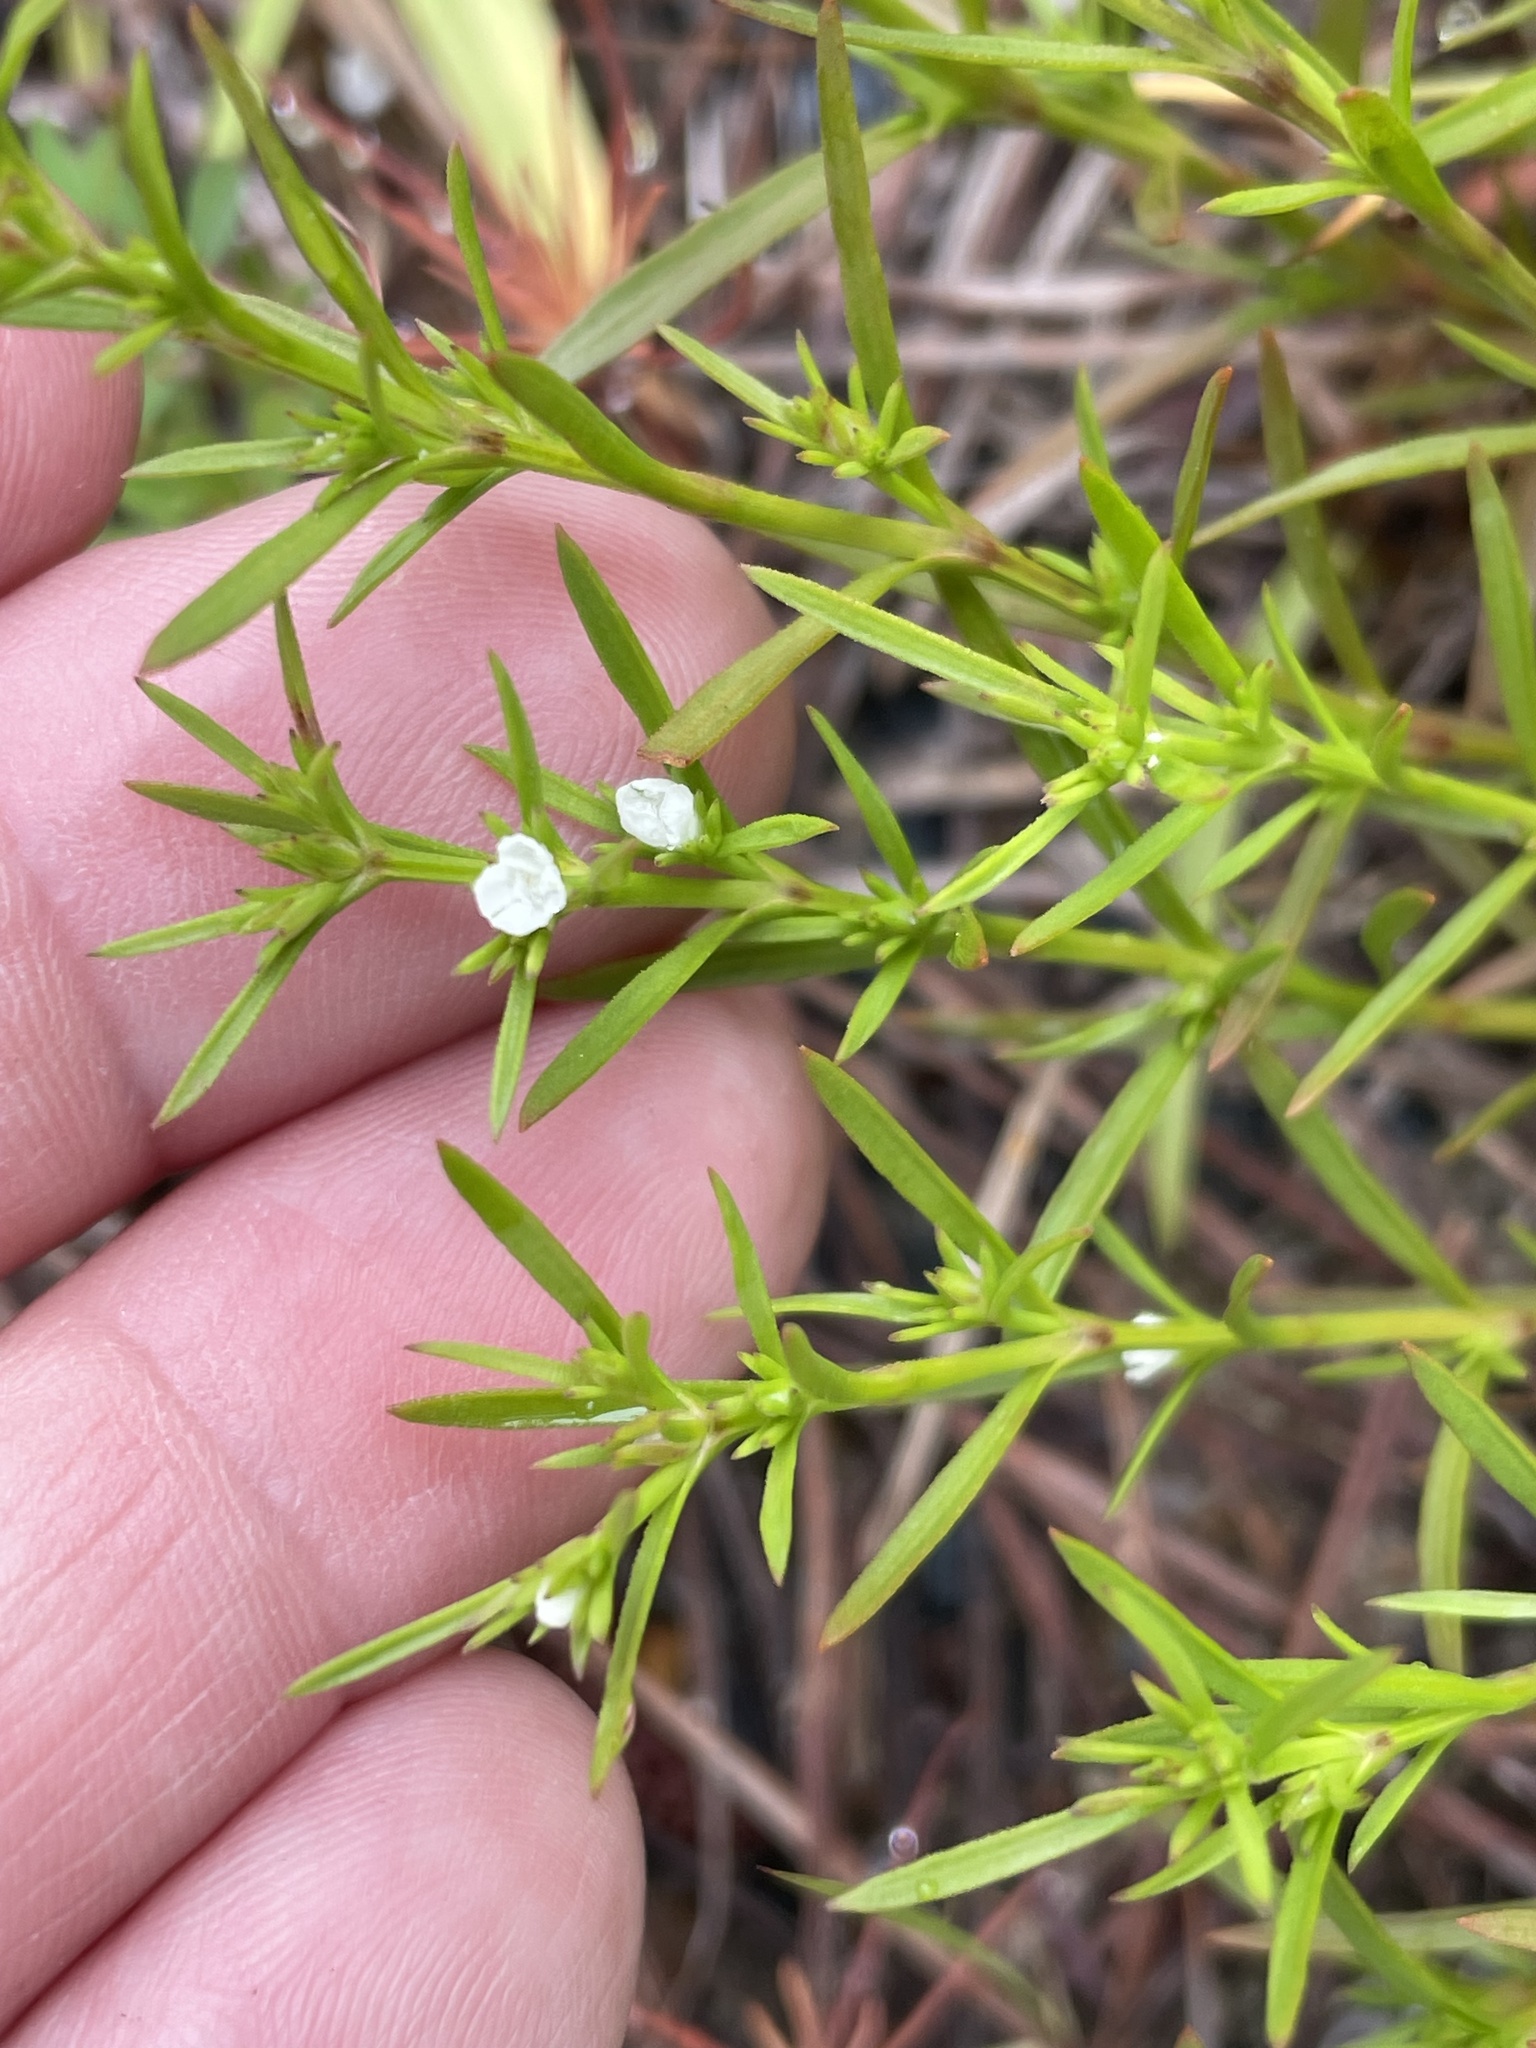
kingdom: Plantae
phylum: Tracheophyta
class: Magnoliopsida
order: Lamiales
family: Tetrachondraceae
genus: Polypremum
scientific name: Polypremum procumbens
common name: Juniper-leaf
